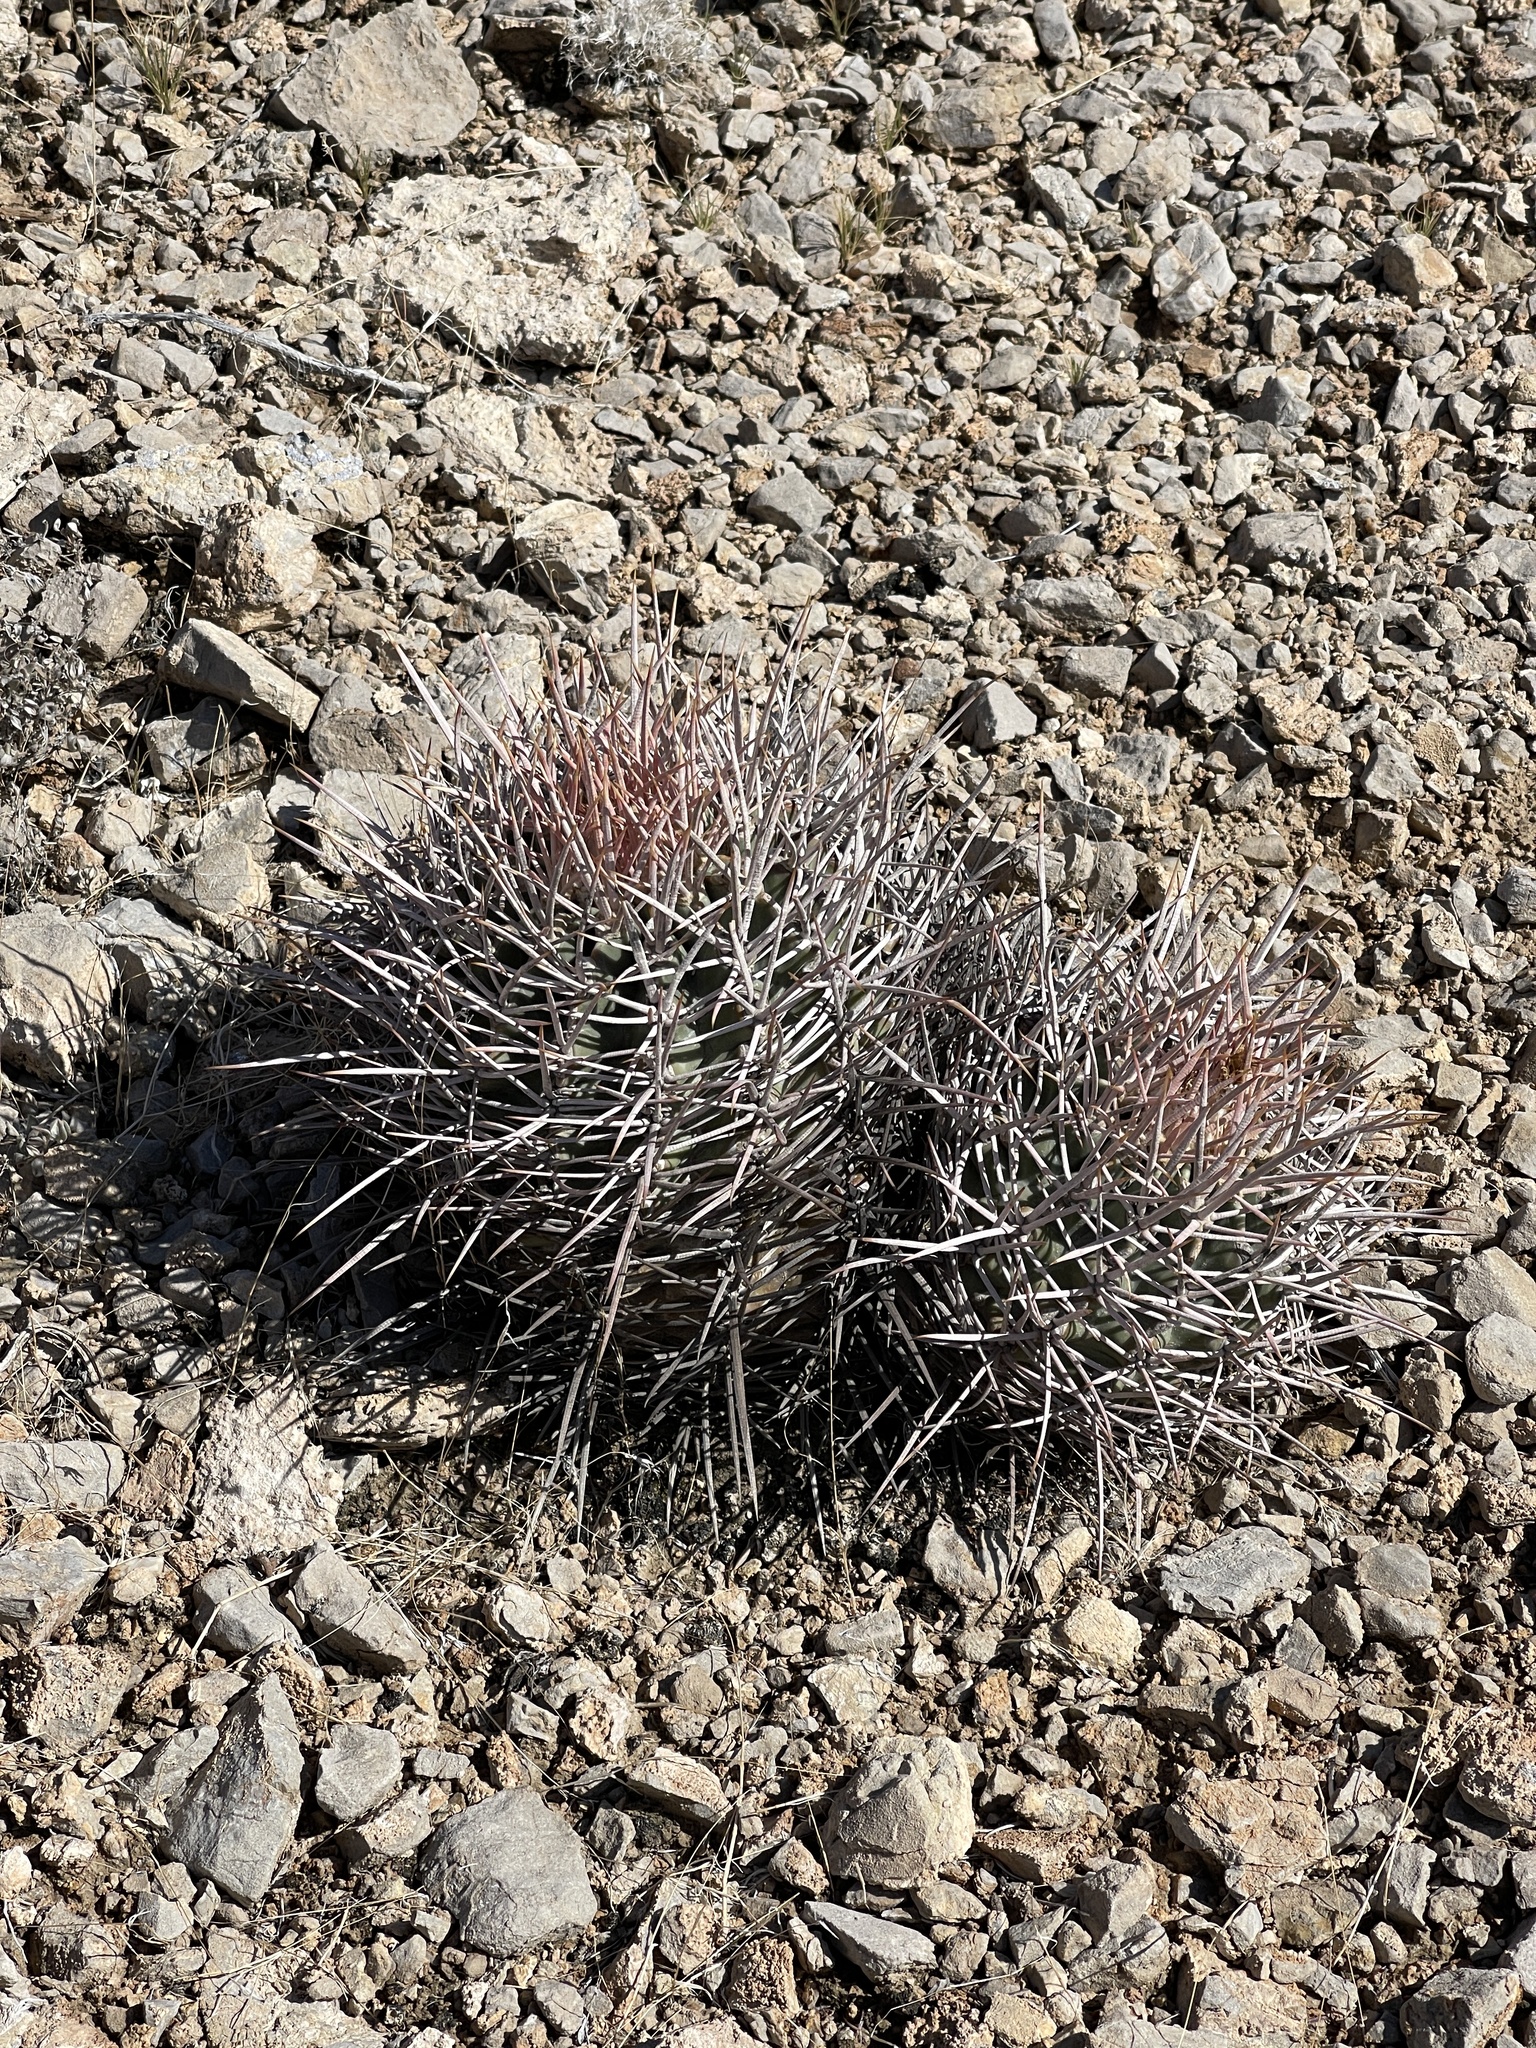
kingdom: Plantae
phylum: Tracheophyta
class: Magnoliopsida
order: Caryophyllales
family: Cactaceae
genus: Echinocactus
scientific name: Echinocactus polycephalus
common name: Cottontop cactus
